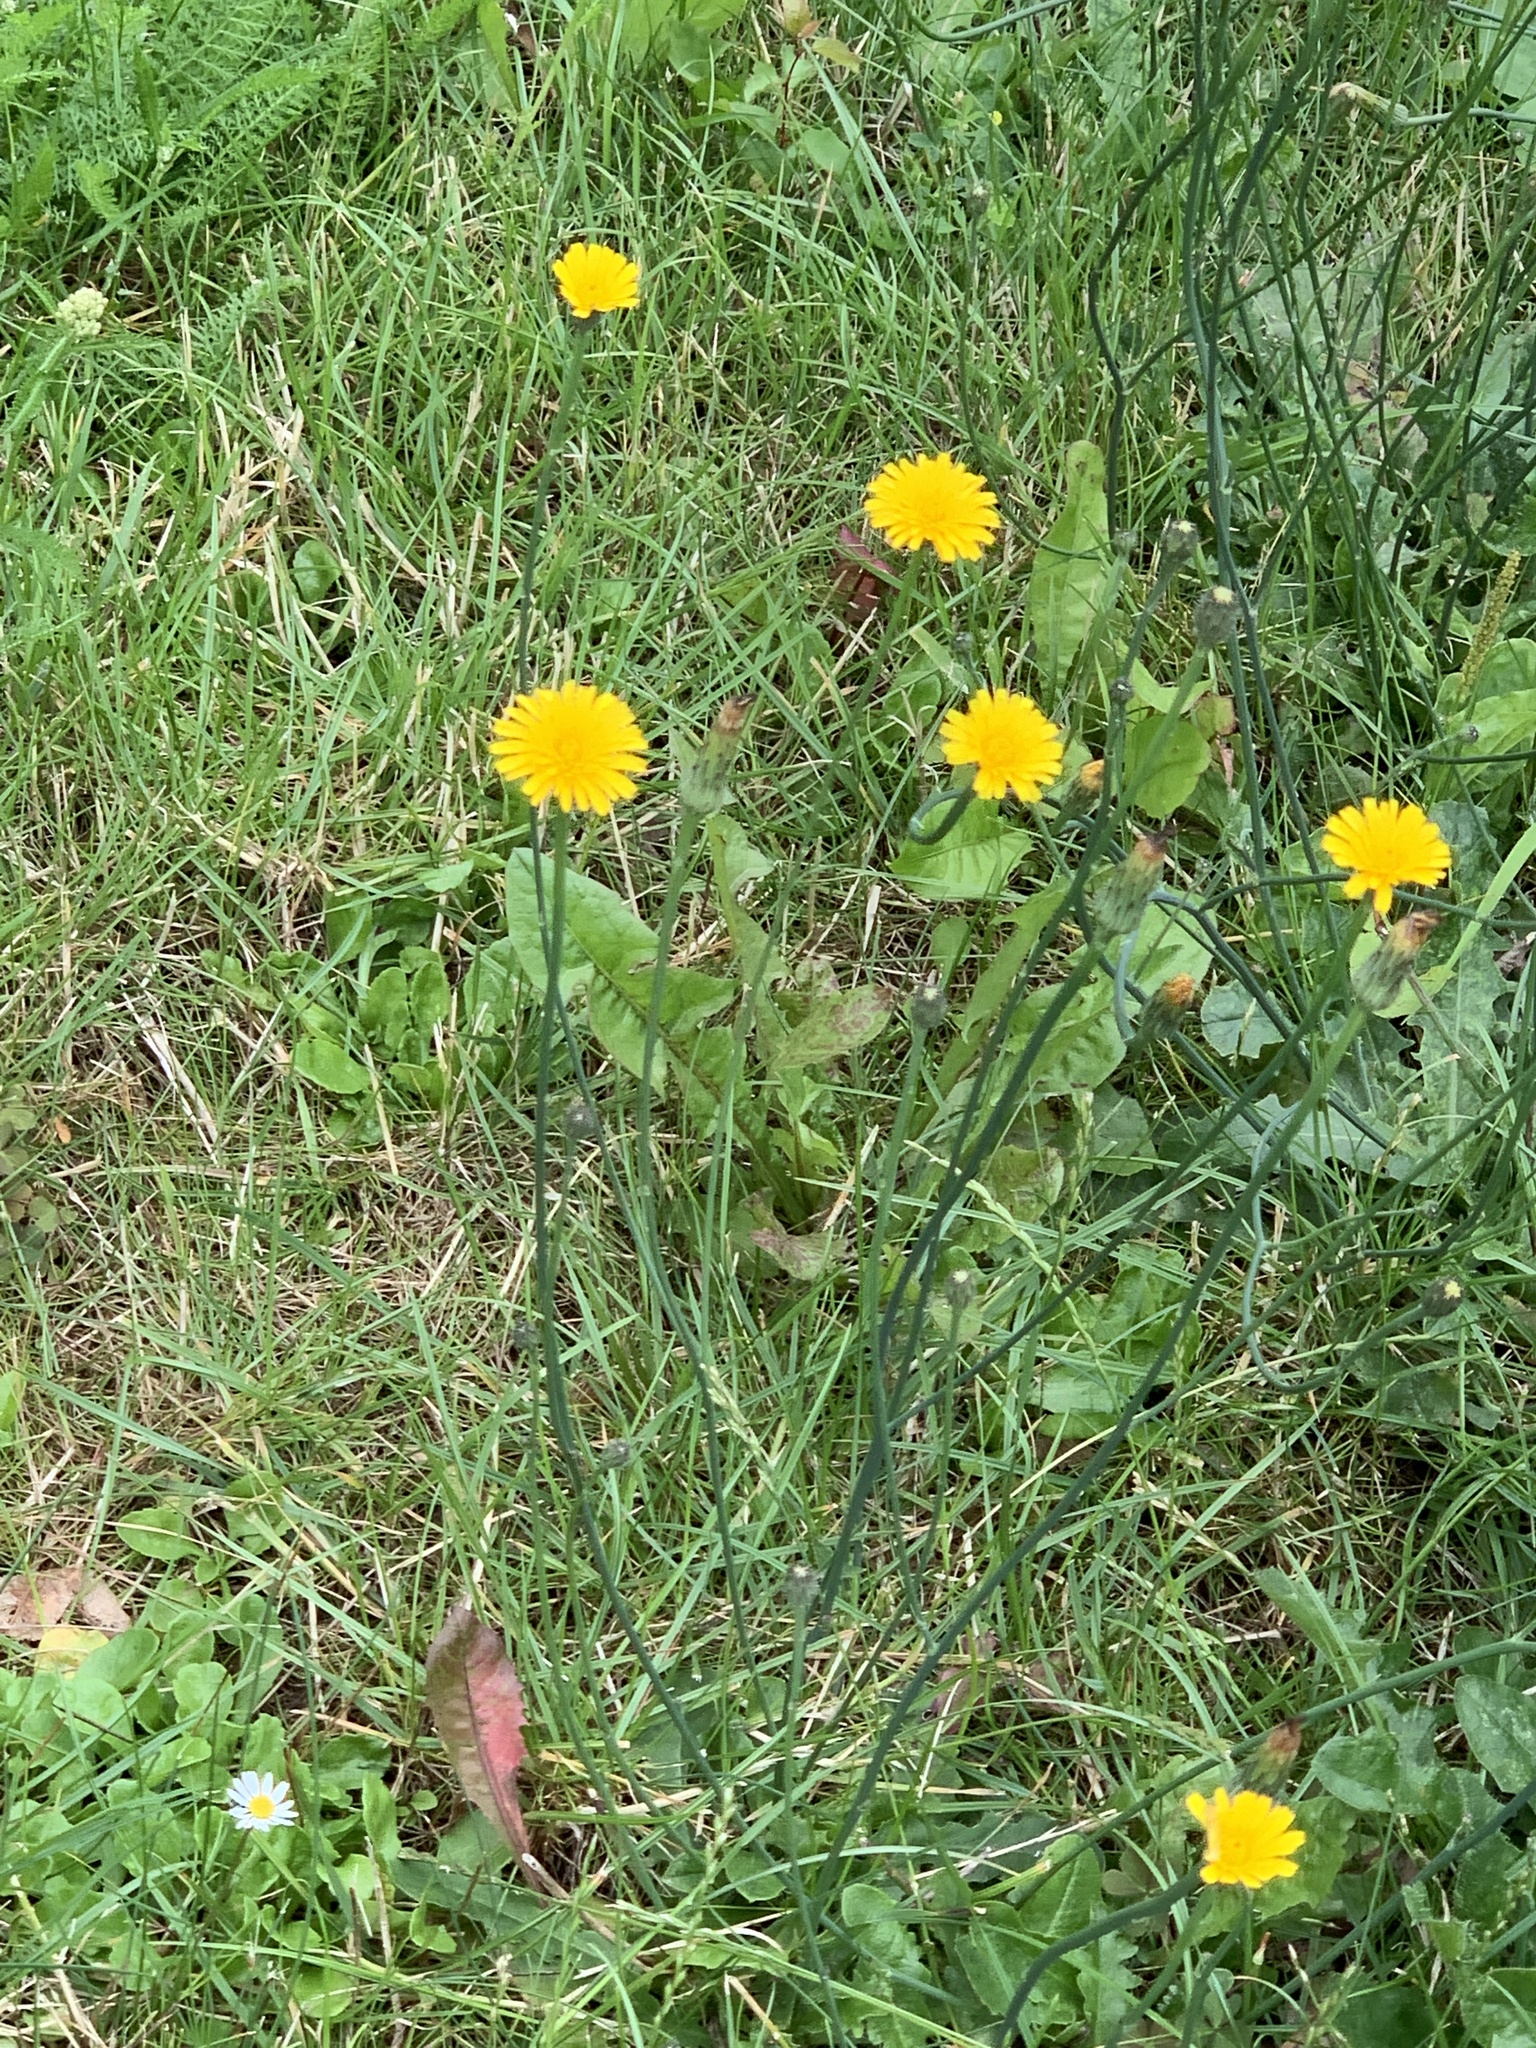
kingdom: Plantae
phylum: Tracheophyta
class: Magnoliopsida
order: Asterales
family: Asteraceae
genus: Hypochaeris
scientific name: Hypochaeris radicata
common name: Flatweed
